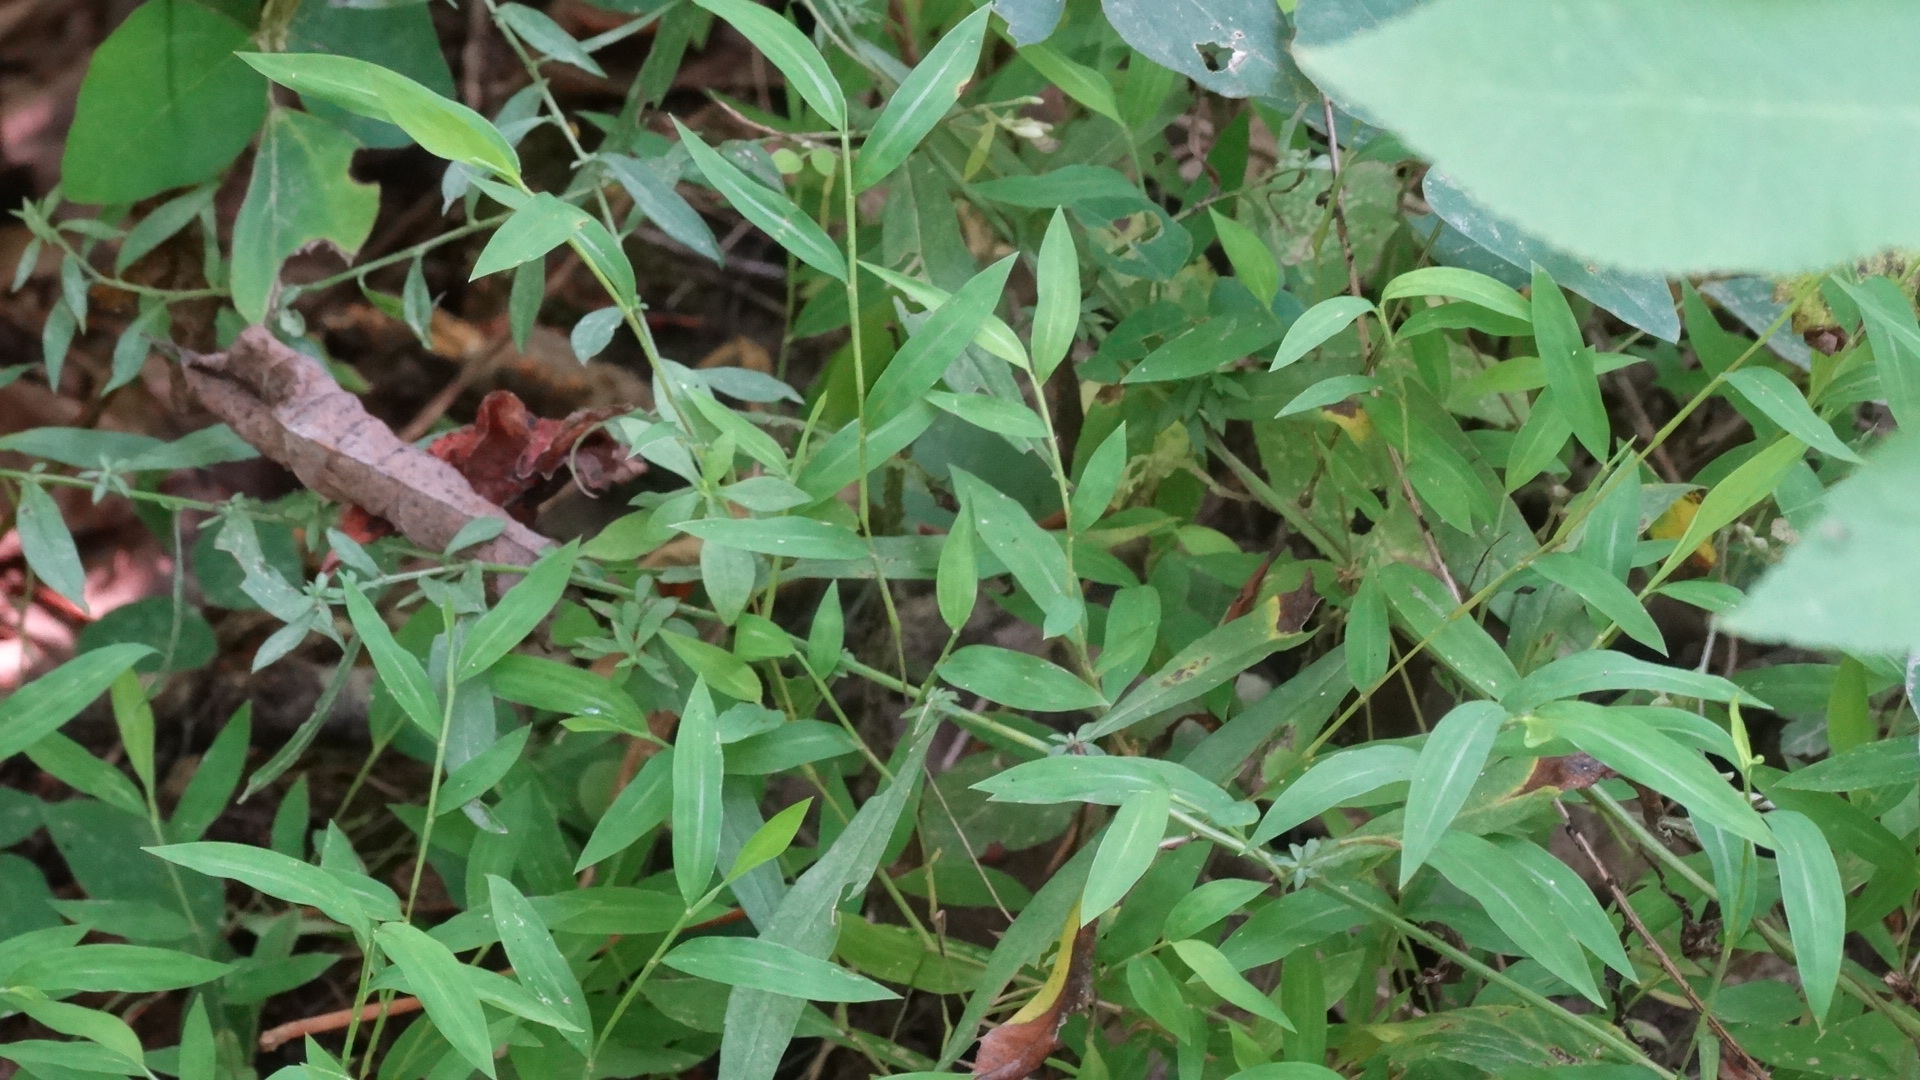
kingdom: Plantae
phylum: Tracheophyta
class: Liliopsida
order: Poales
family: Poaceae
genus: Microstegium
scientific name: Microstegium vimineum
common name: Japanese stiltgrass
